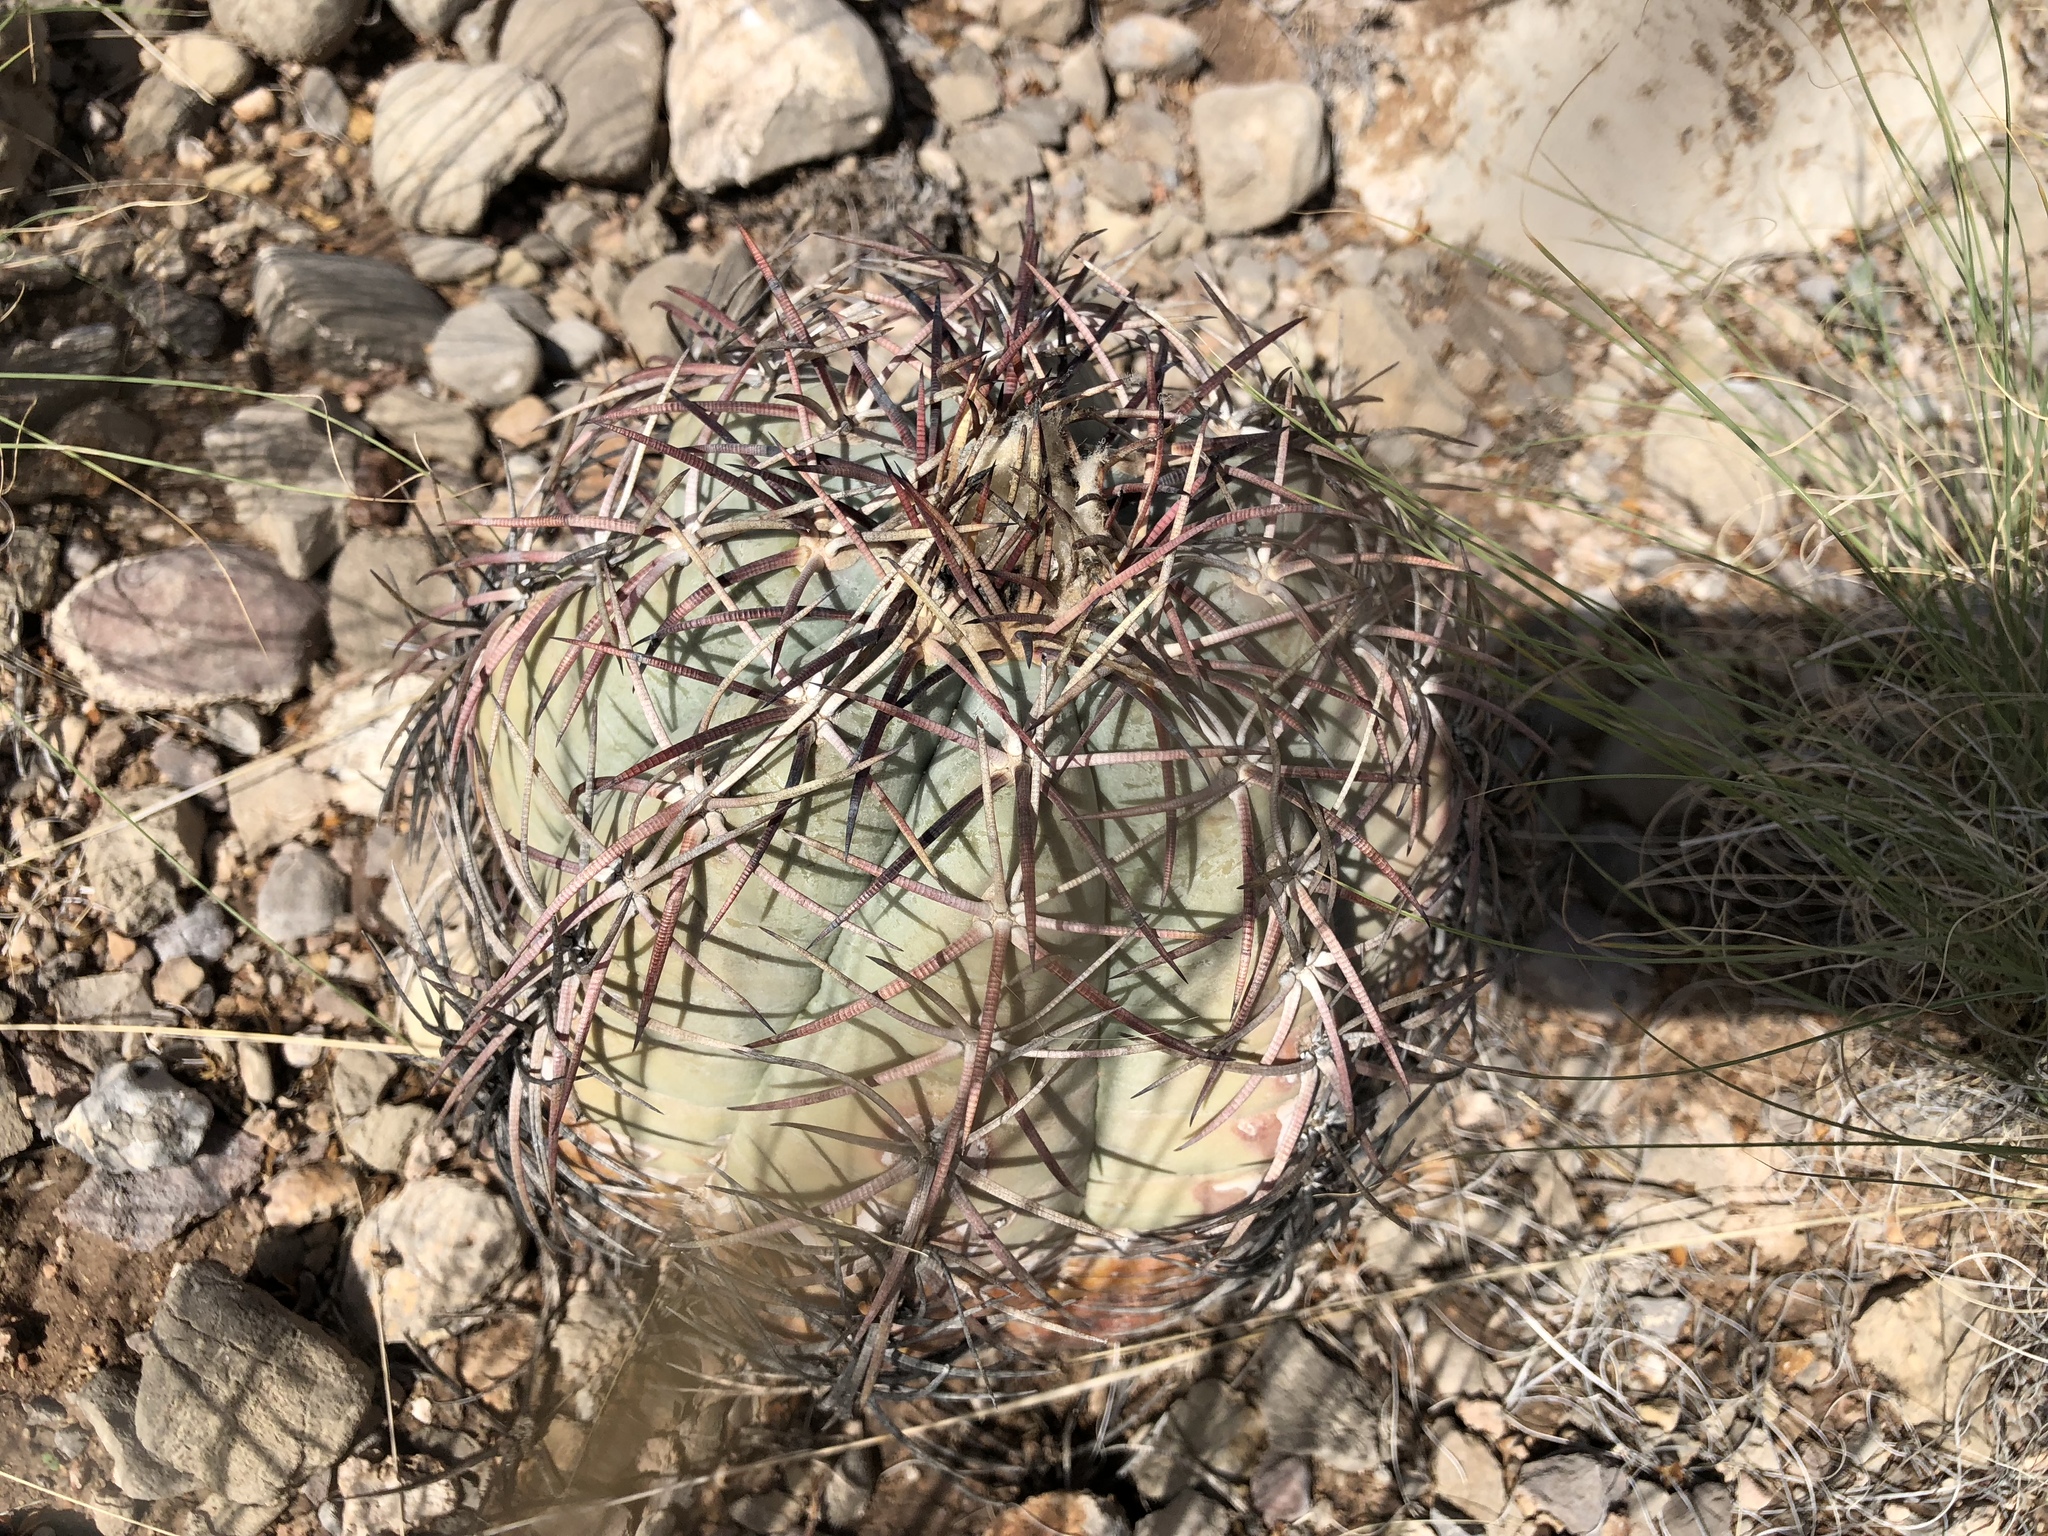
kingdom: Plantae
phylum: Tracheophyta
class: Magnoliopsida
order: Caryophyllales
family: Cactaceae
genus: Echinocactus
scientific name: Echinocactus horizonthalonius
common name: Devilshead
